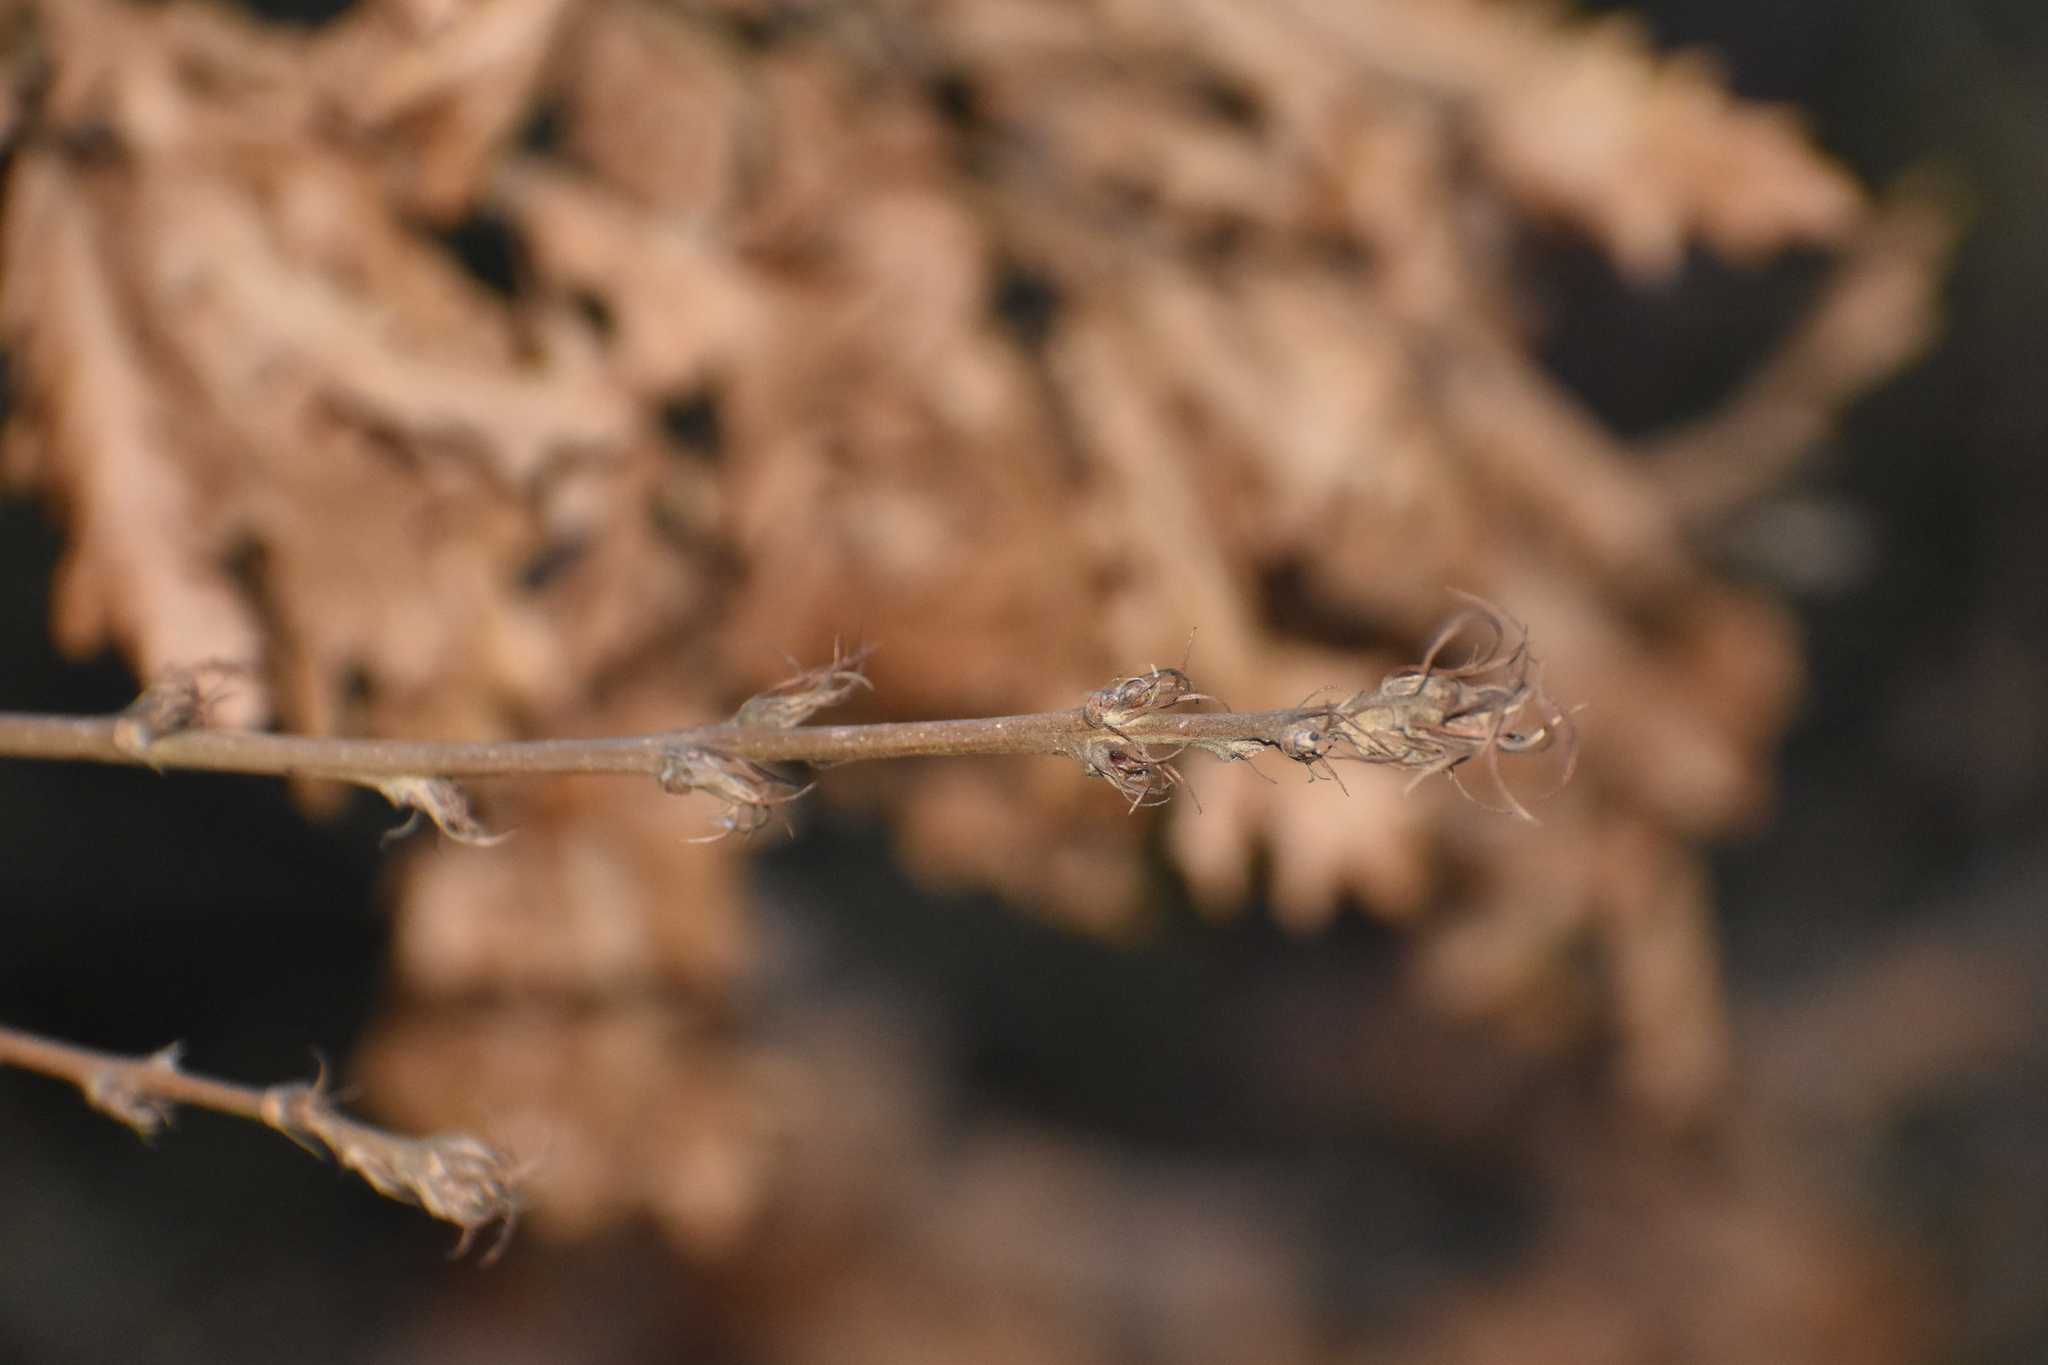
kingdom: Plantae
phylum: Tracheophyta
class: Magnoliopsida
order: Fagales
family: Fagaceae
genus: Quercus
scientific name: Quercus cerris
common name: Turkey oak
